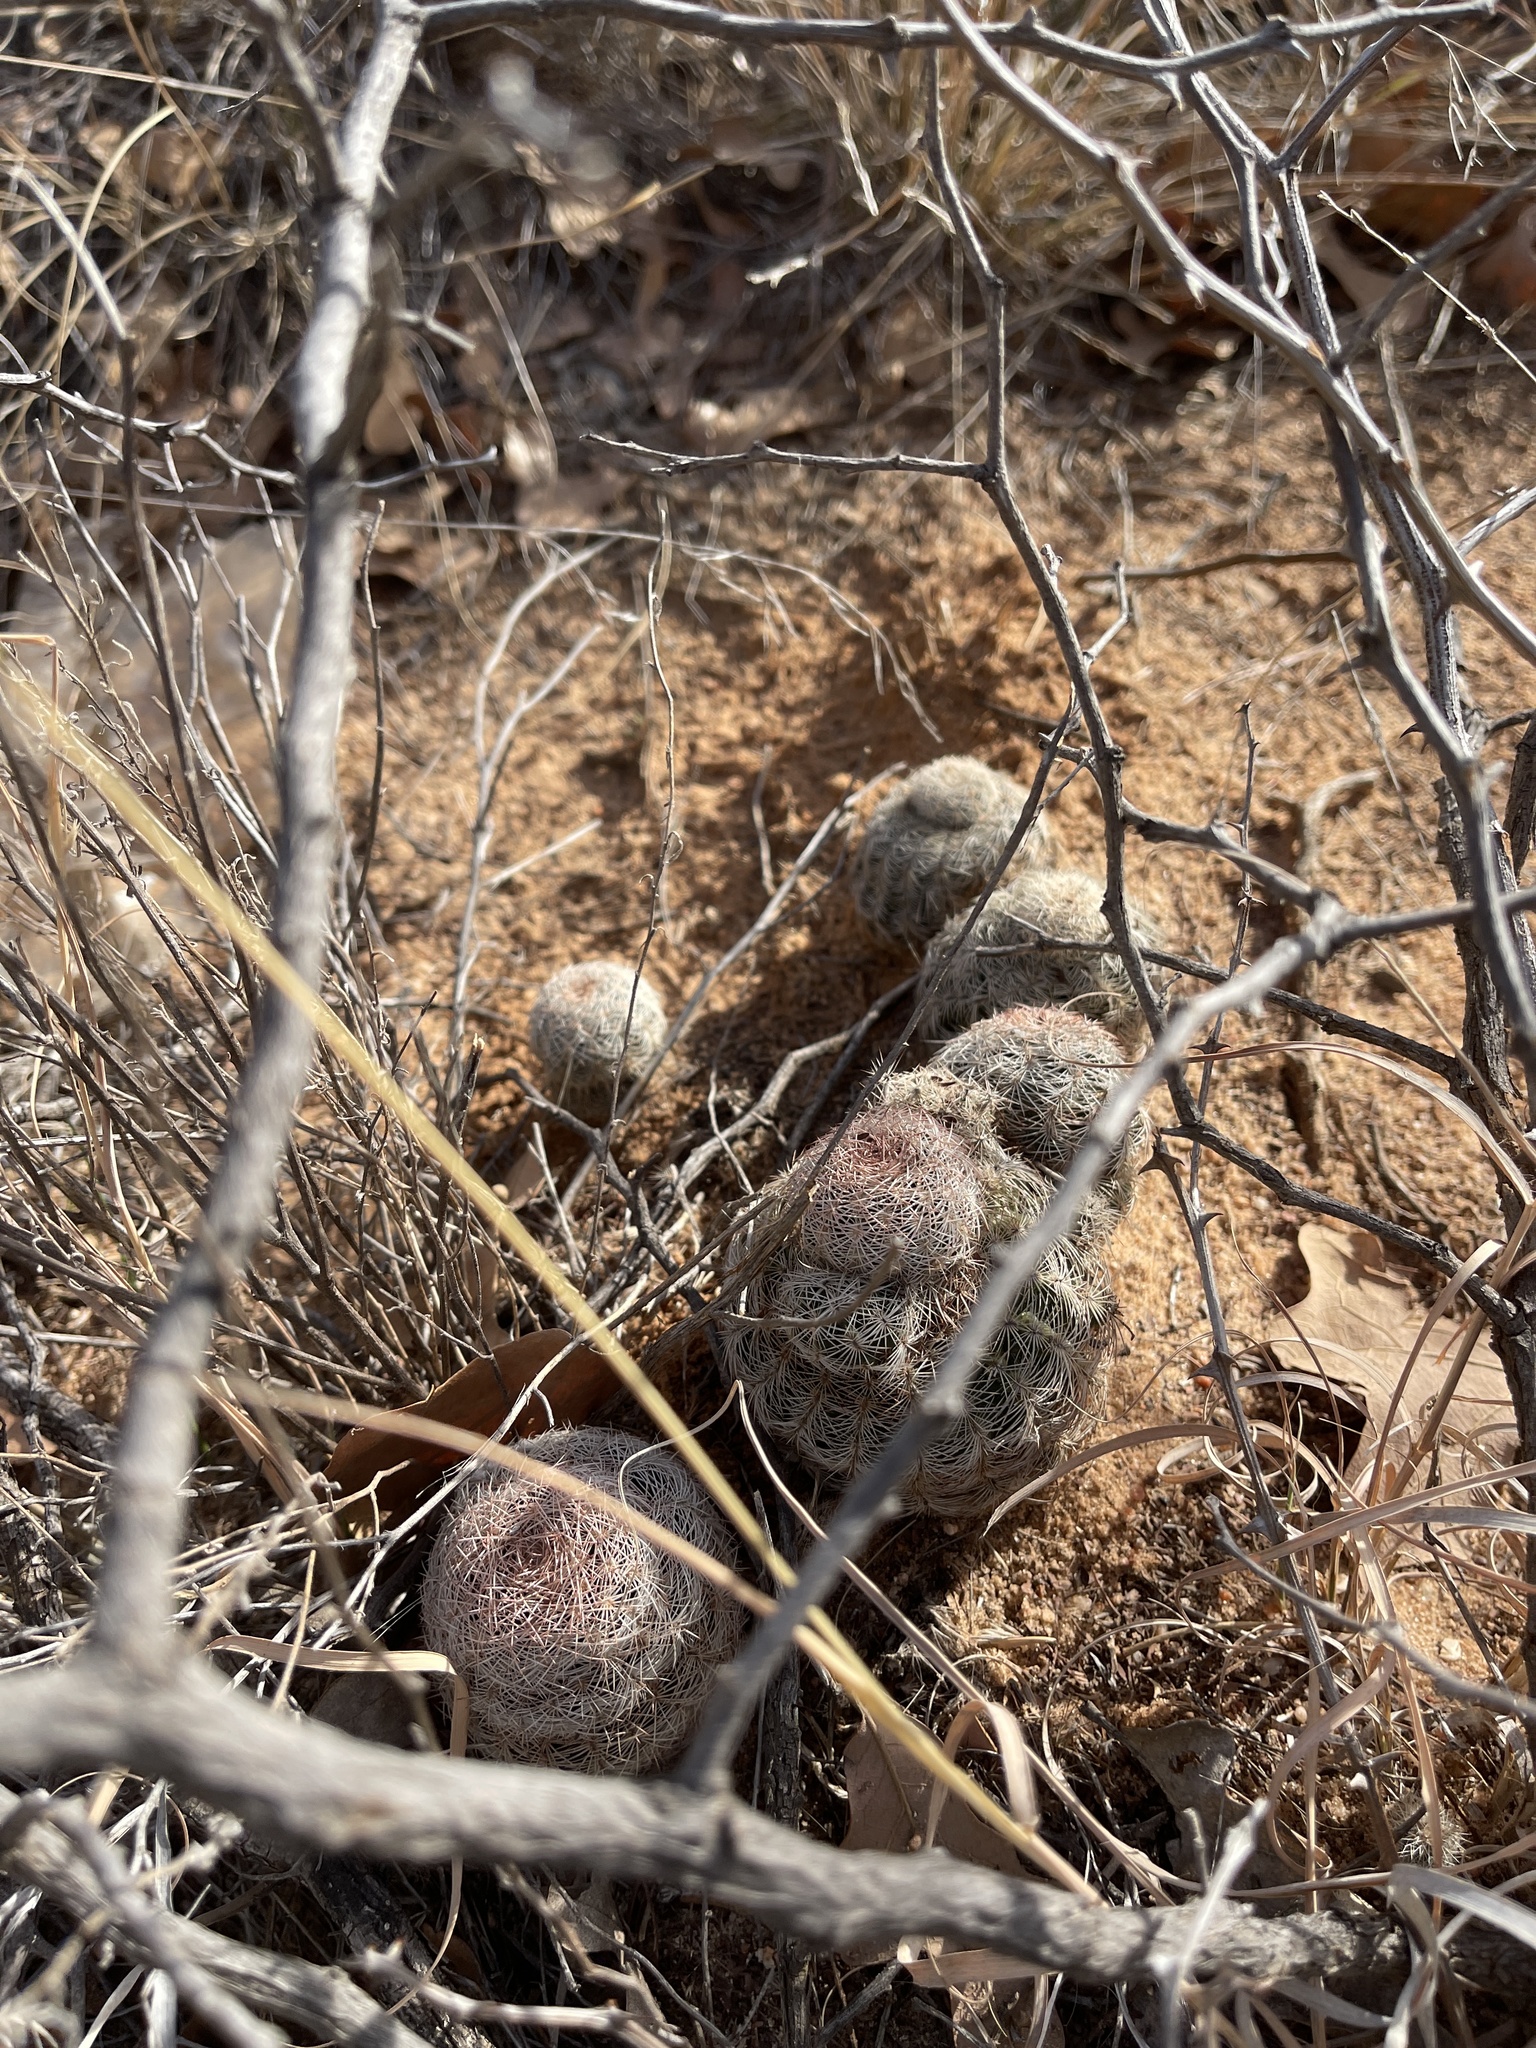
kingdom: Plantae
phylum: Tracheophyta
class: Magnoliopsida
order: Caryophyllales
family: Cactaceae
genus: Echinocereus
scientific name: Echinocereus reichenbachii
